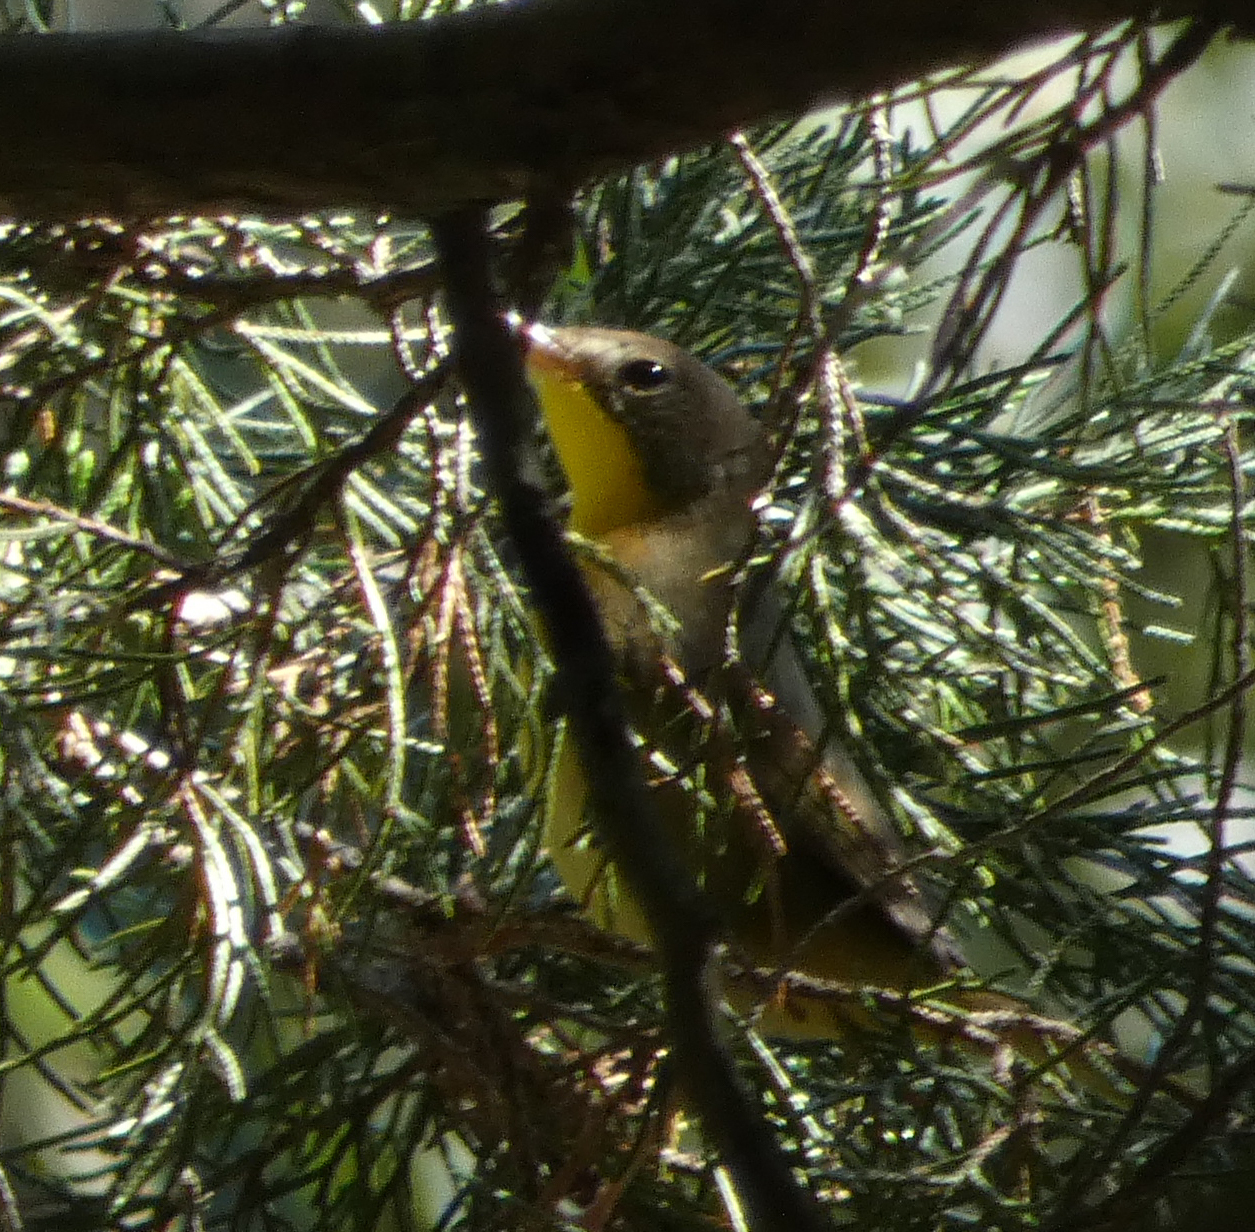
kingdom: Animalia
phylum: Chordata
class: Aves
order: Passeriformes
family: Parulidae
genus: Geothlypis
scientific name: Geothlypis trichas
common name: Common yellowthroat
